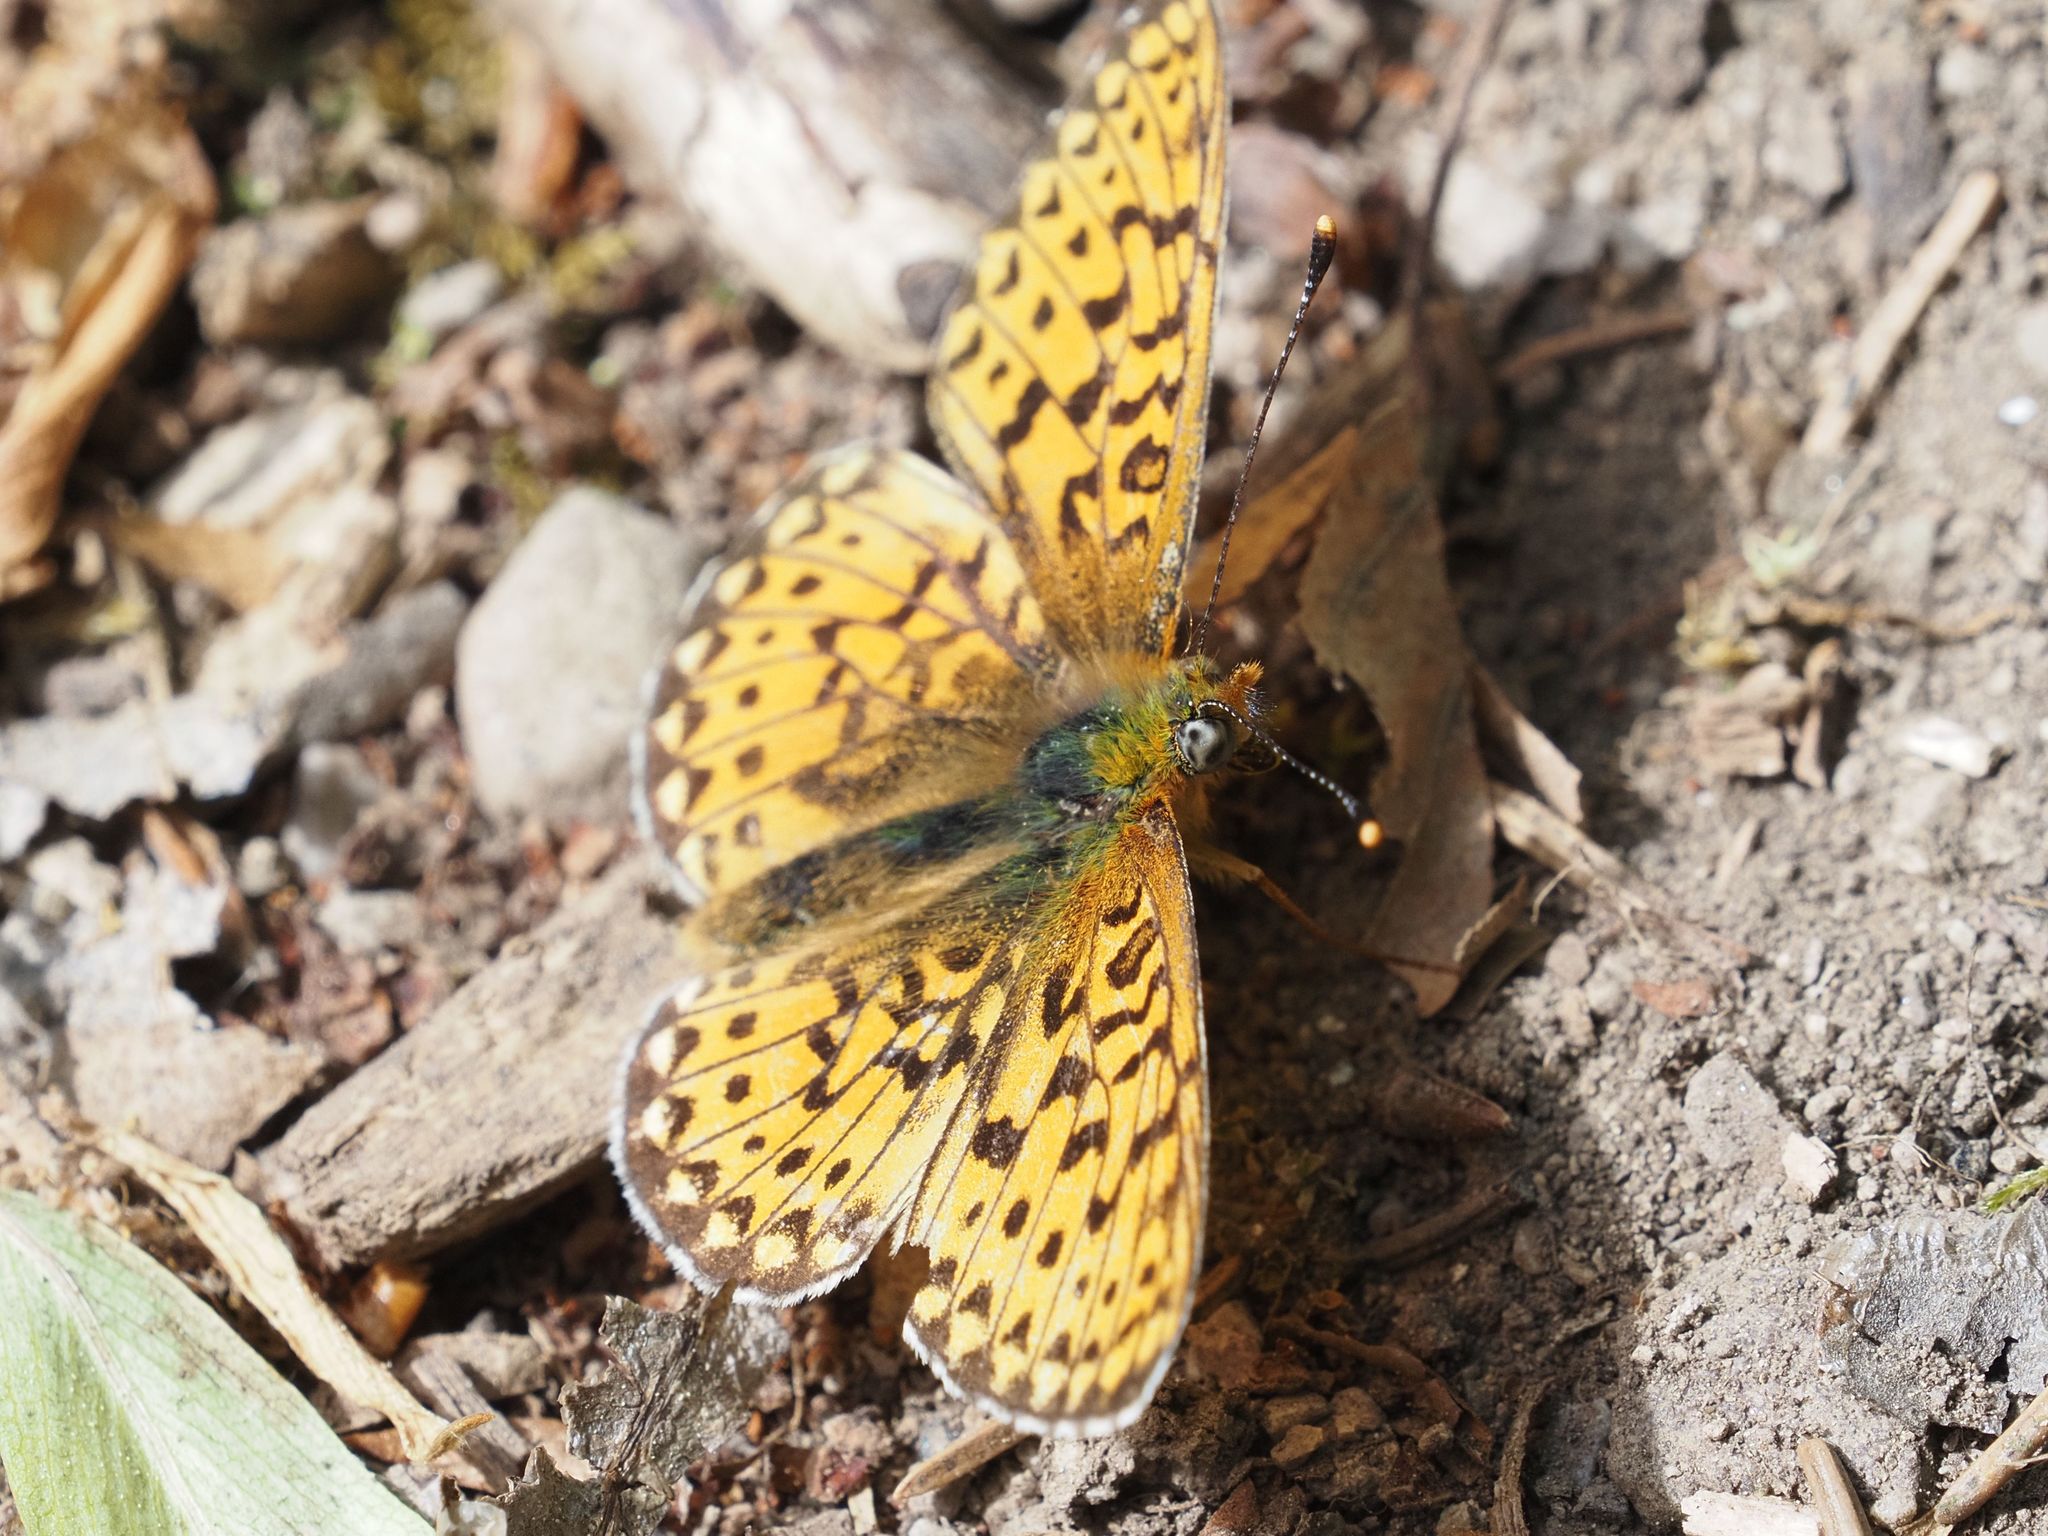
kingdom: Animalia
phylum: Arthropoda
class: Insecta
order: Lepidoptera
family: Nymphalidae
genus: Clossiana
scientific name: Clossiana euphrosyne
